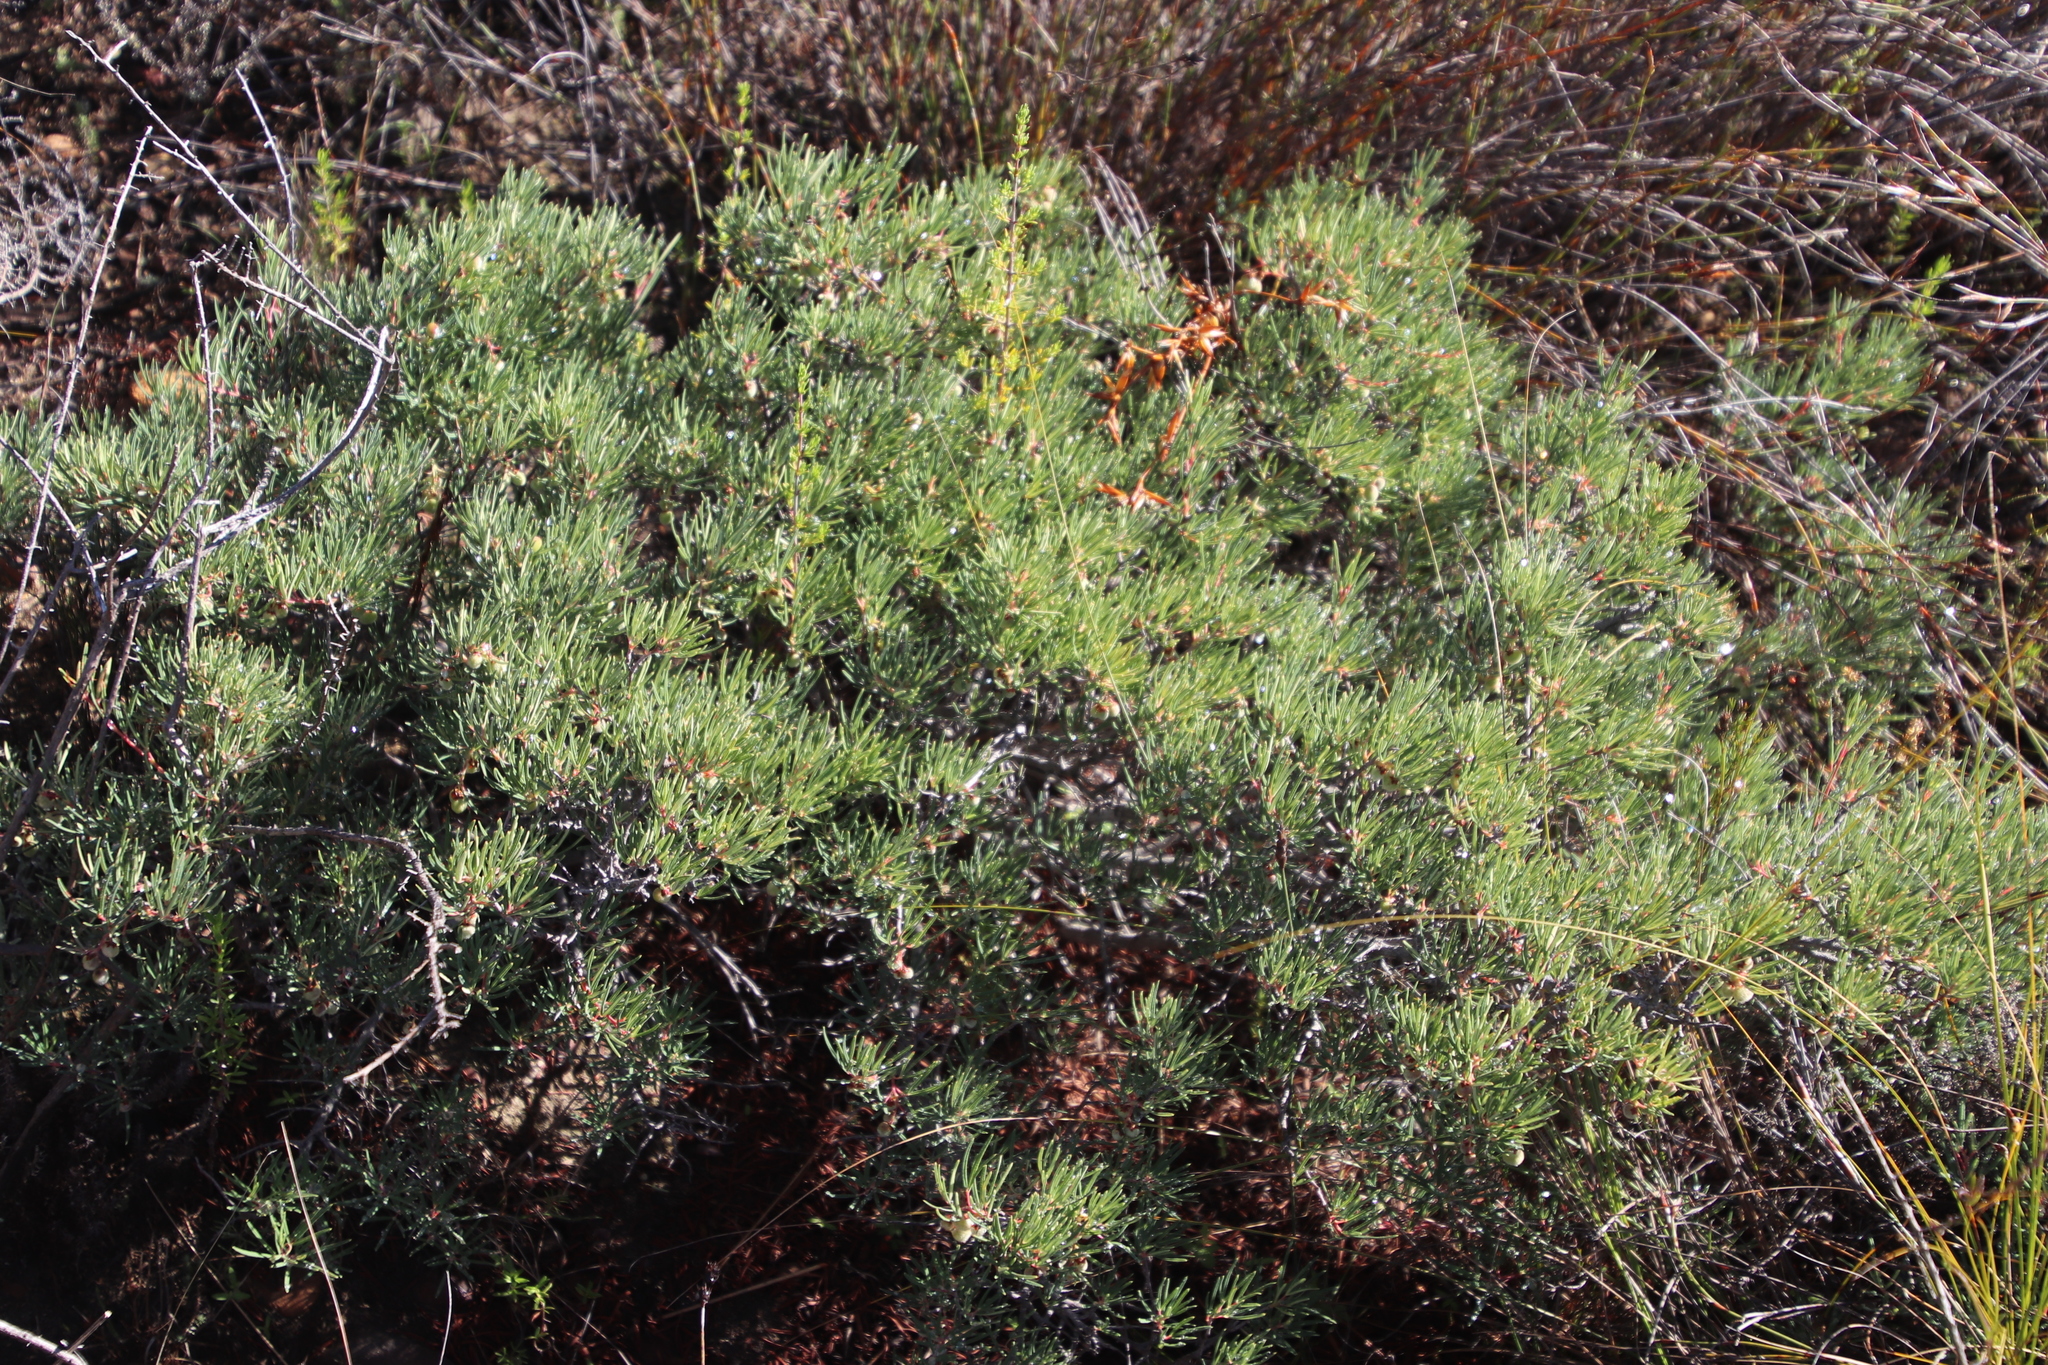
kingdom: Plantae
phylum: Tracheophyta
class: Magnoliopsida
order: Sapindales
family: Anacardiaceae
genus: Searsia
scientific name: Searsia rosmarinifolia
